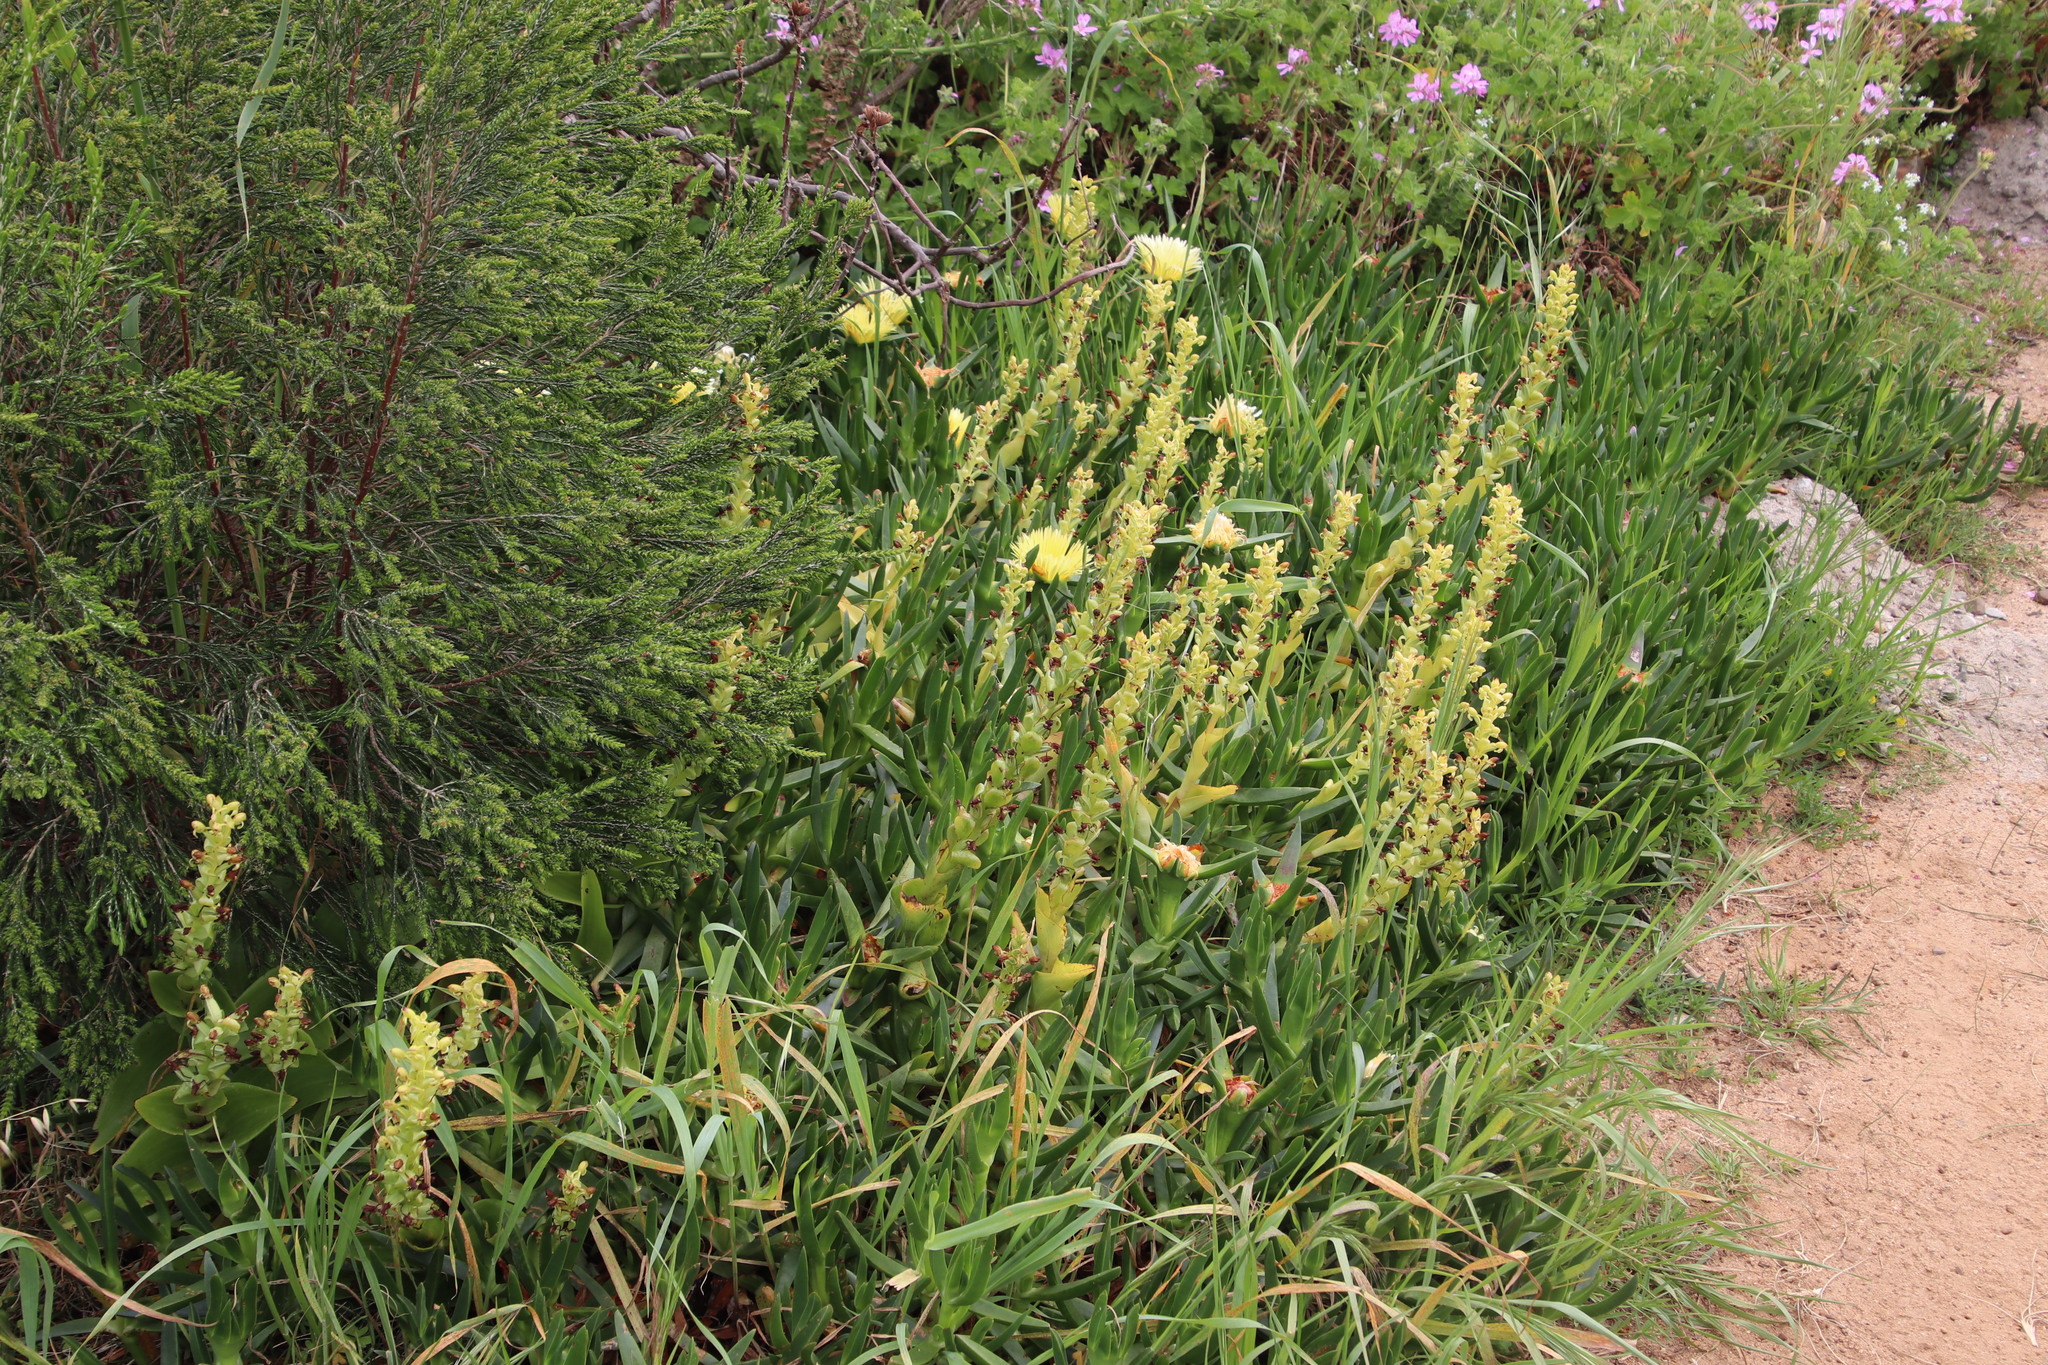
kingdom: Plantae
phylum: Tracheophyta
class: Liliopsida
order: Asparagales
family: Orchidaceae
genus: Satyrium
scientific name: Satyrium odorum
